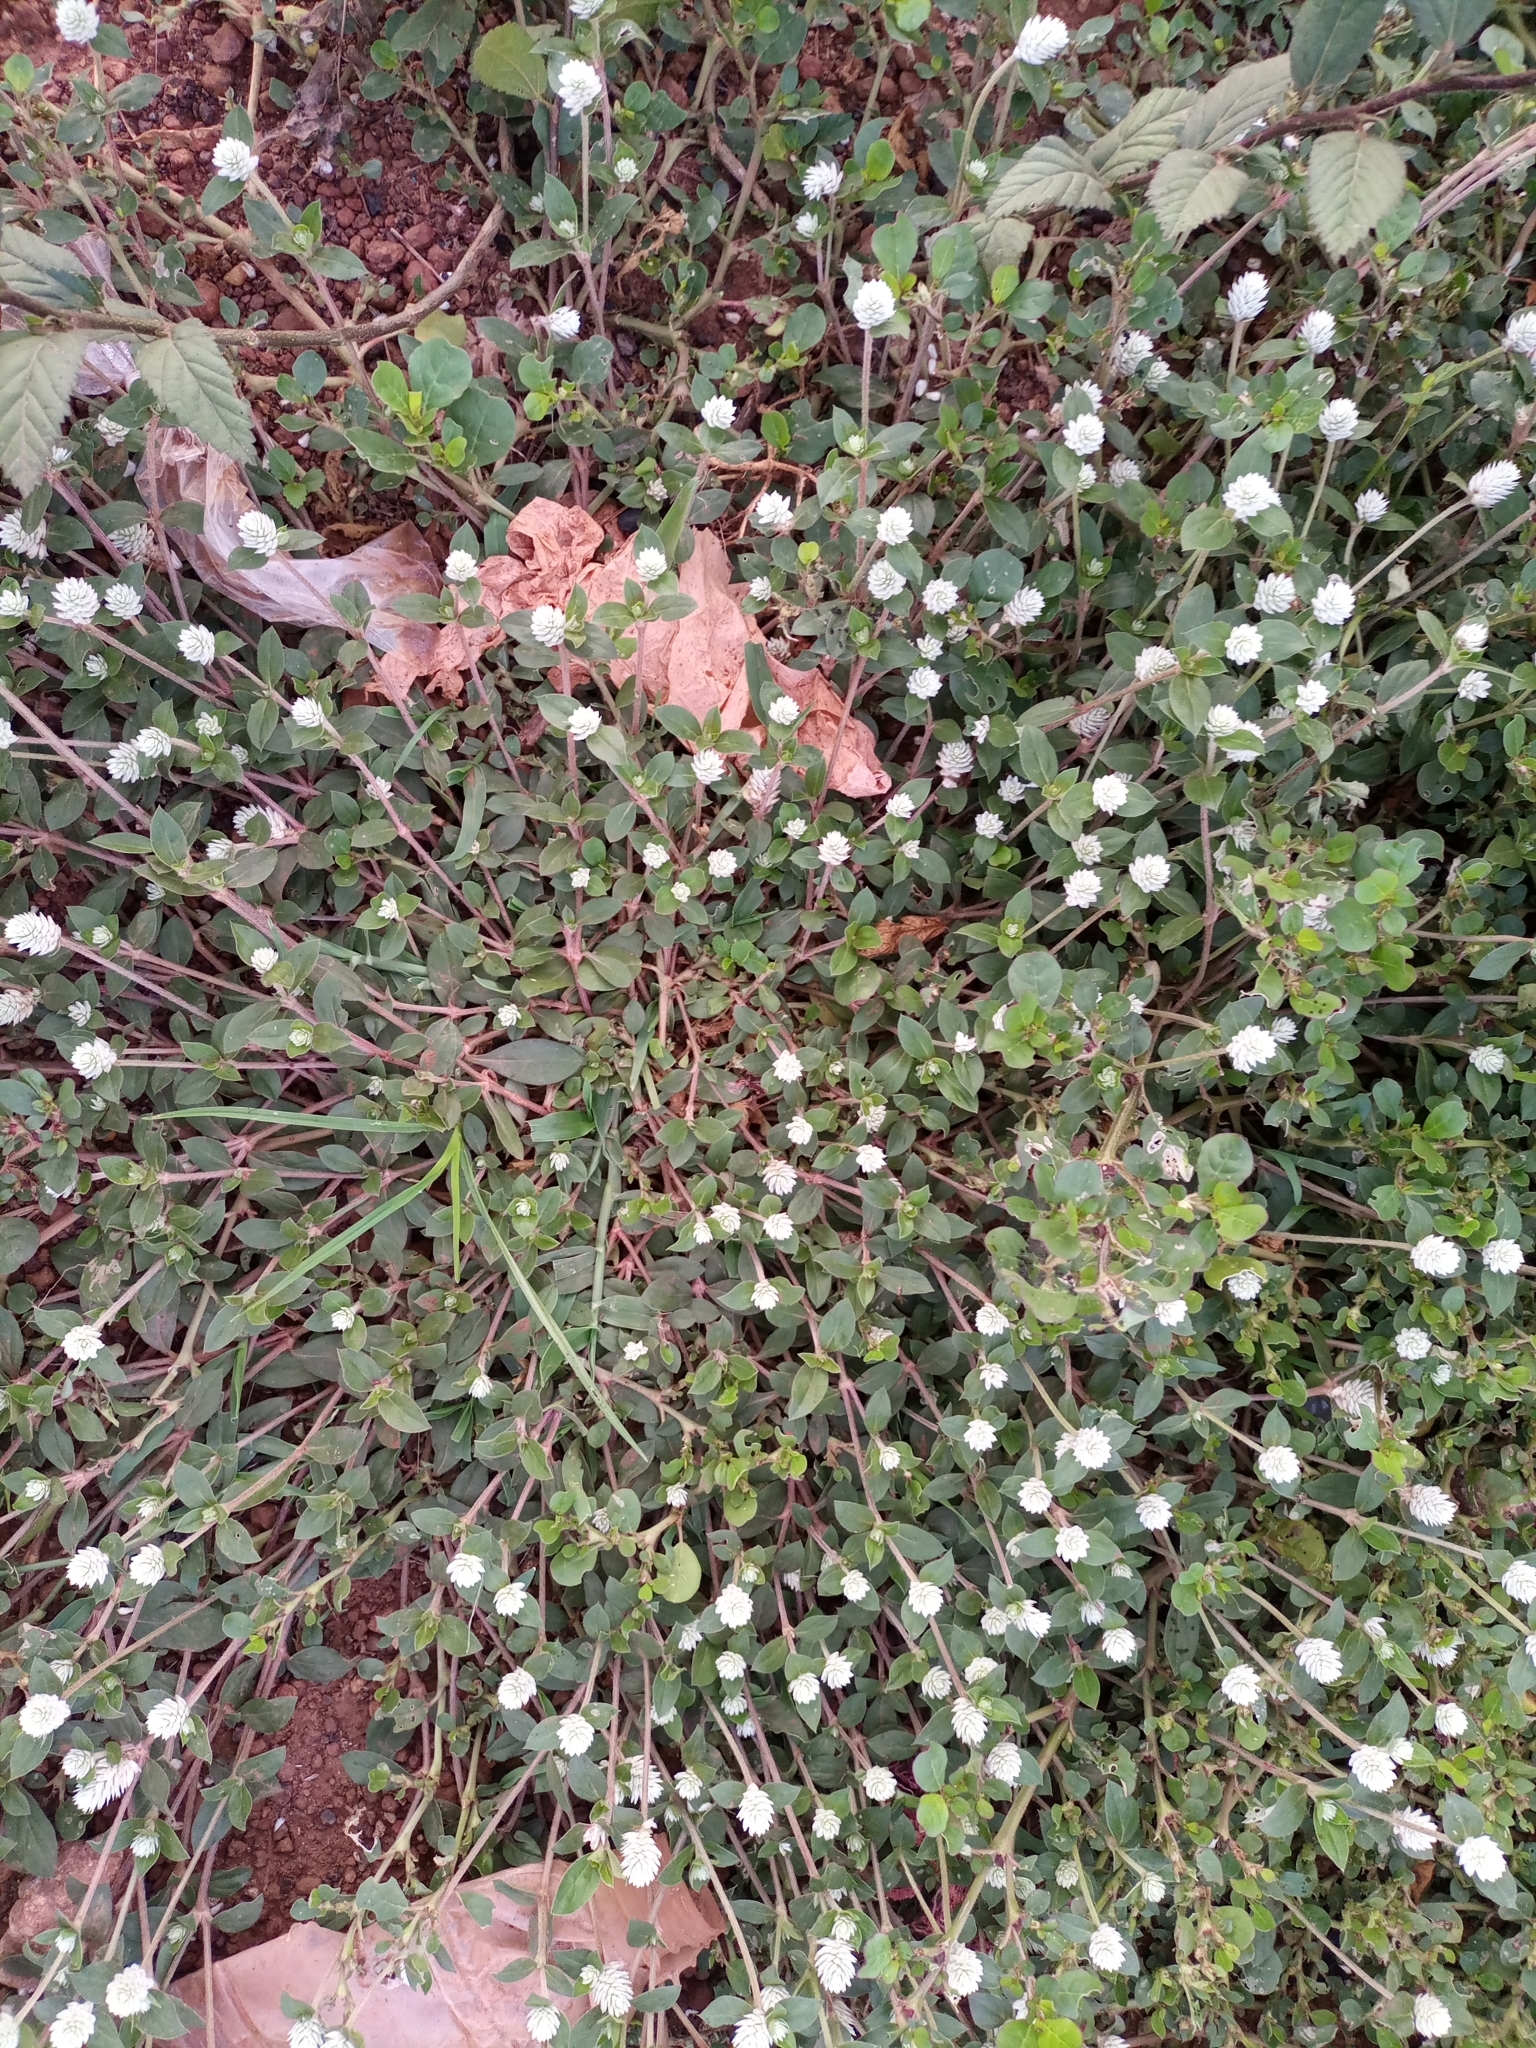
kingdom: Plantae
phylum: Tracheophyta
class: Magnoliopsida
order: Caryophyllales
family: Amaranthaceae
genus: Gomphrena
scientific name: Gomphrena celosioides
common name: Gomphrena-weed
